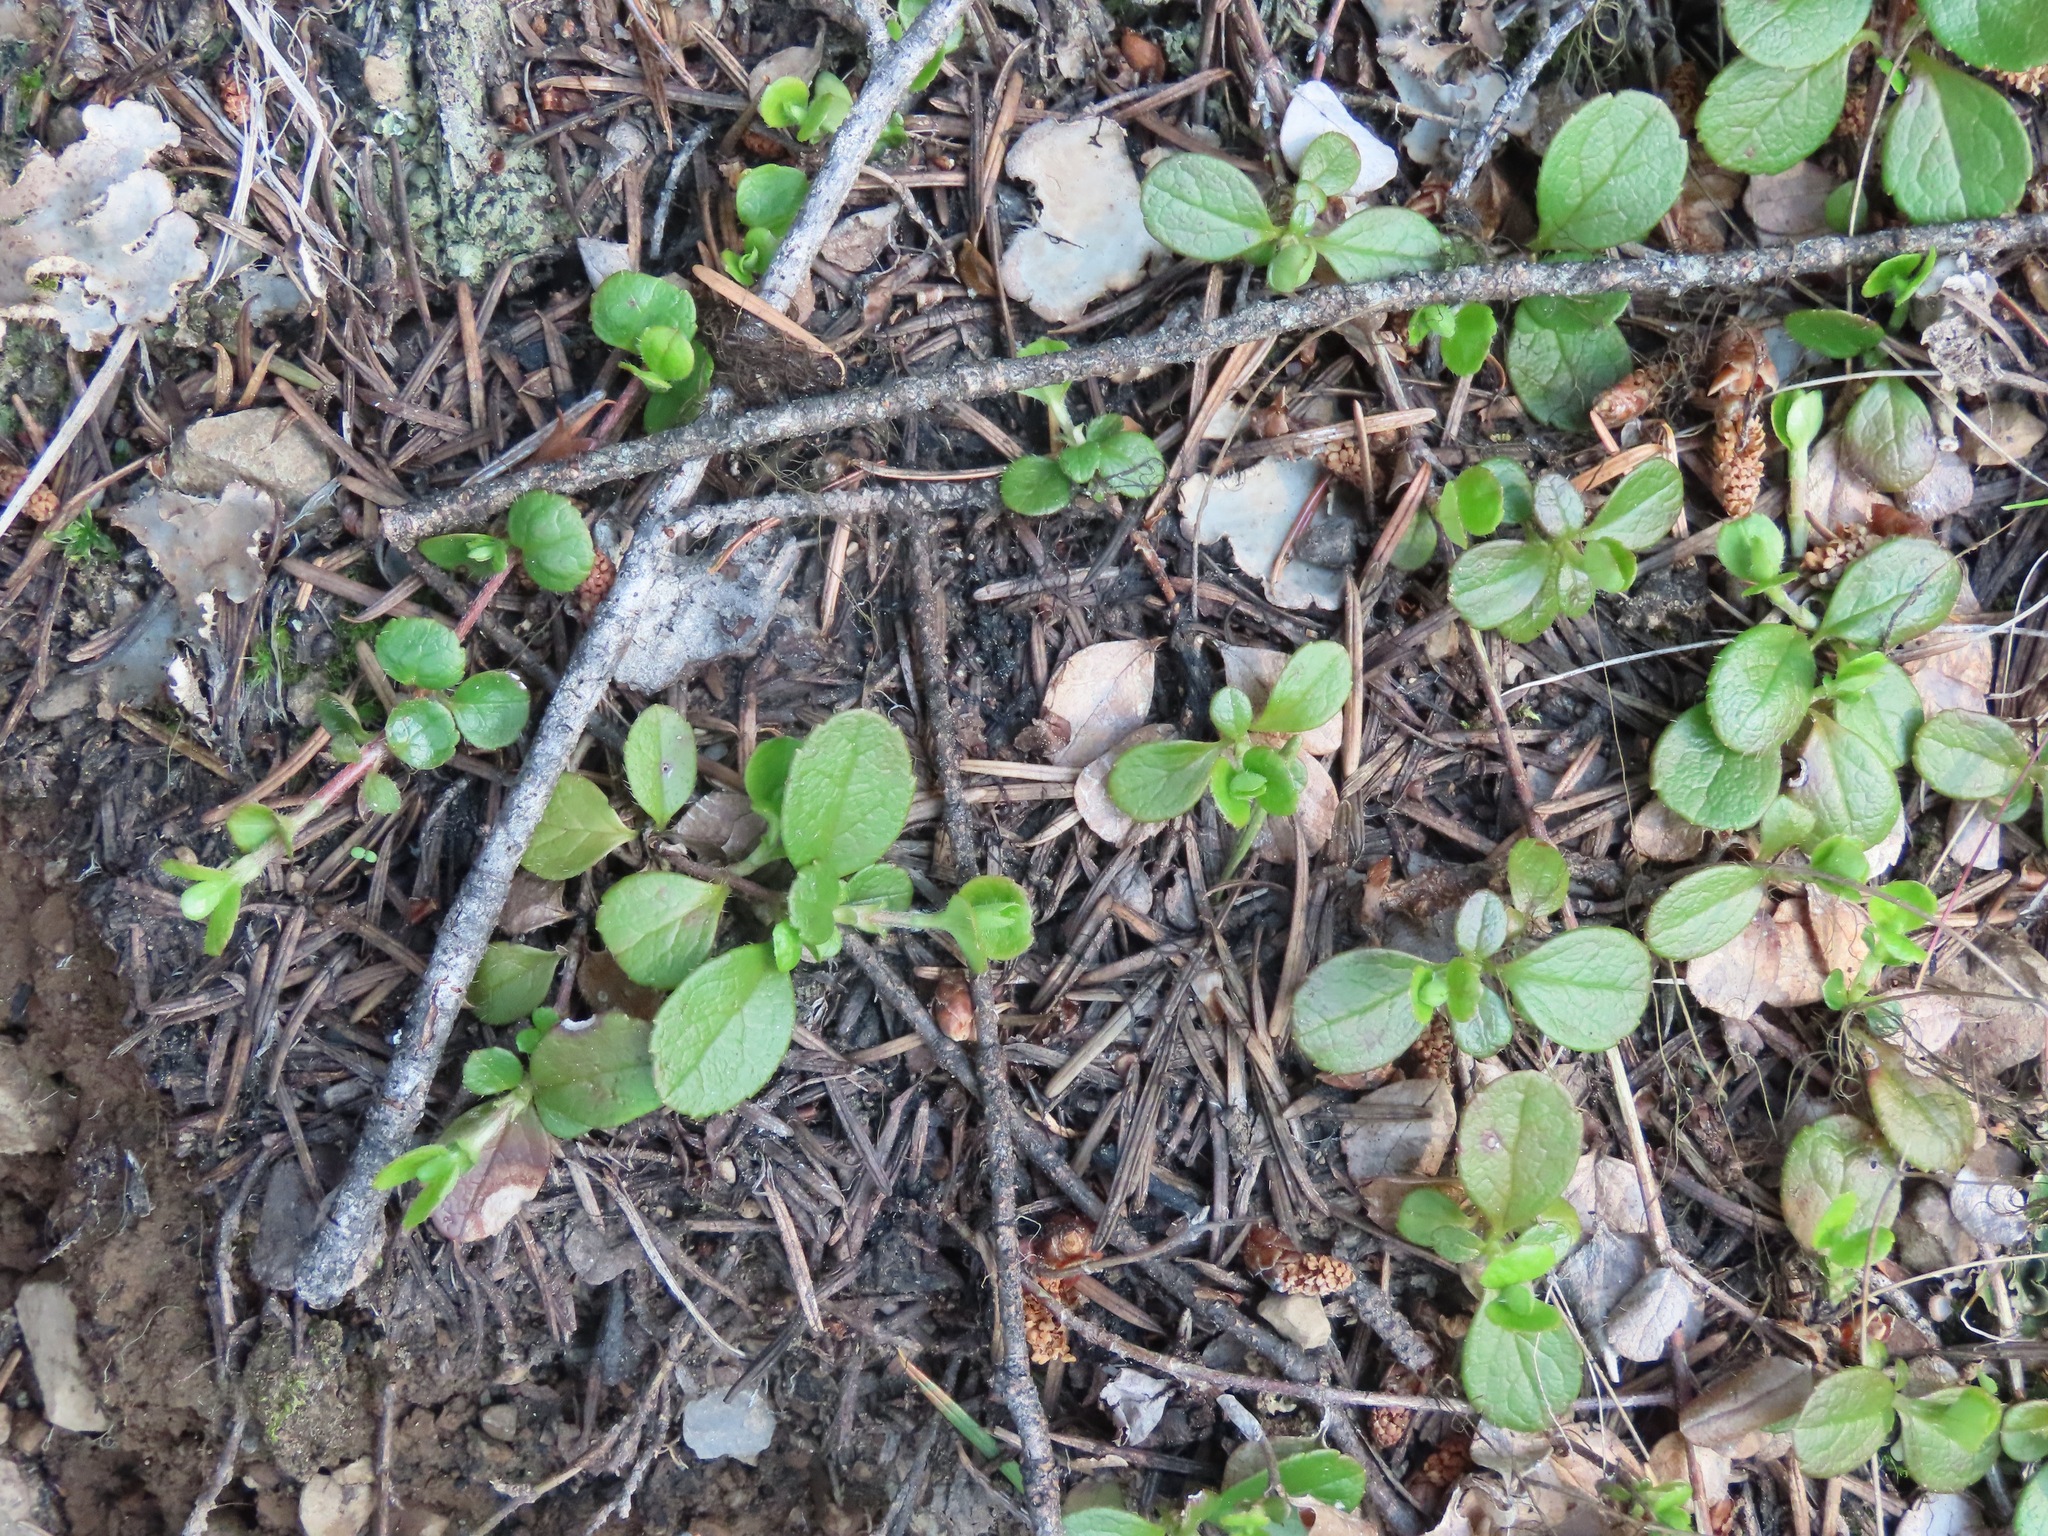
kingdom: Plantae
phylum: Tracheophyta
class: Magnoliopsida
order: Dipsacales
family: Caprifoliaceae
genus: Linnaea
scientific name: Linnaea borealis
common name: Twinflower
